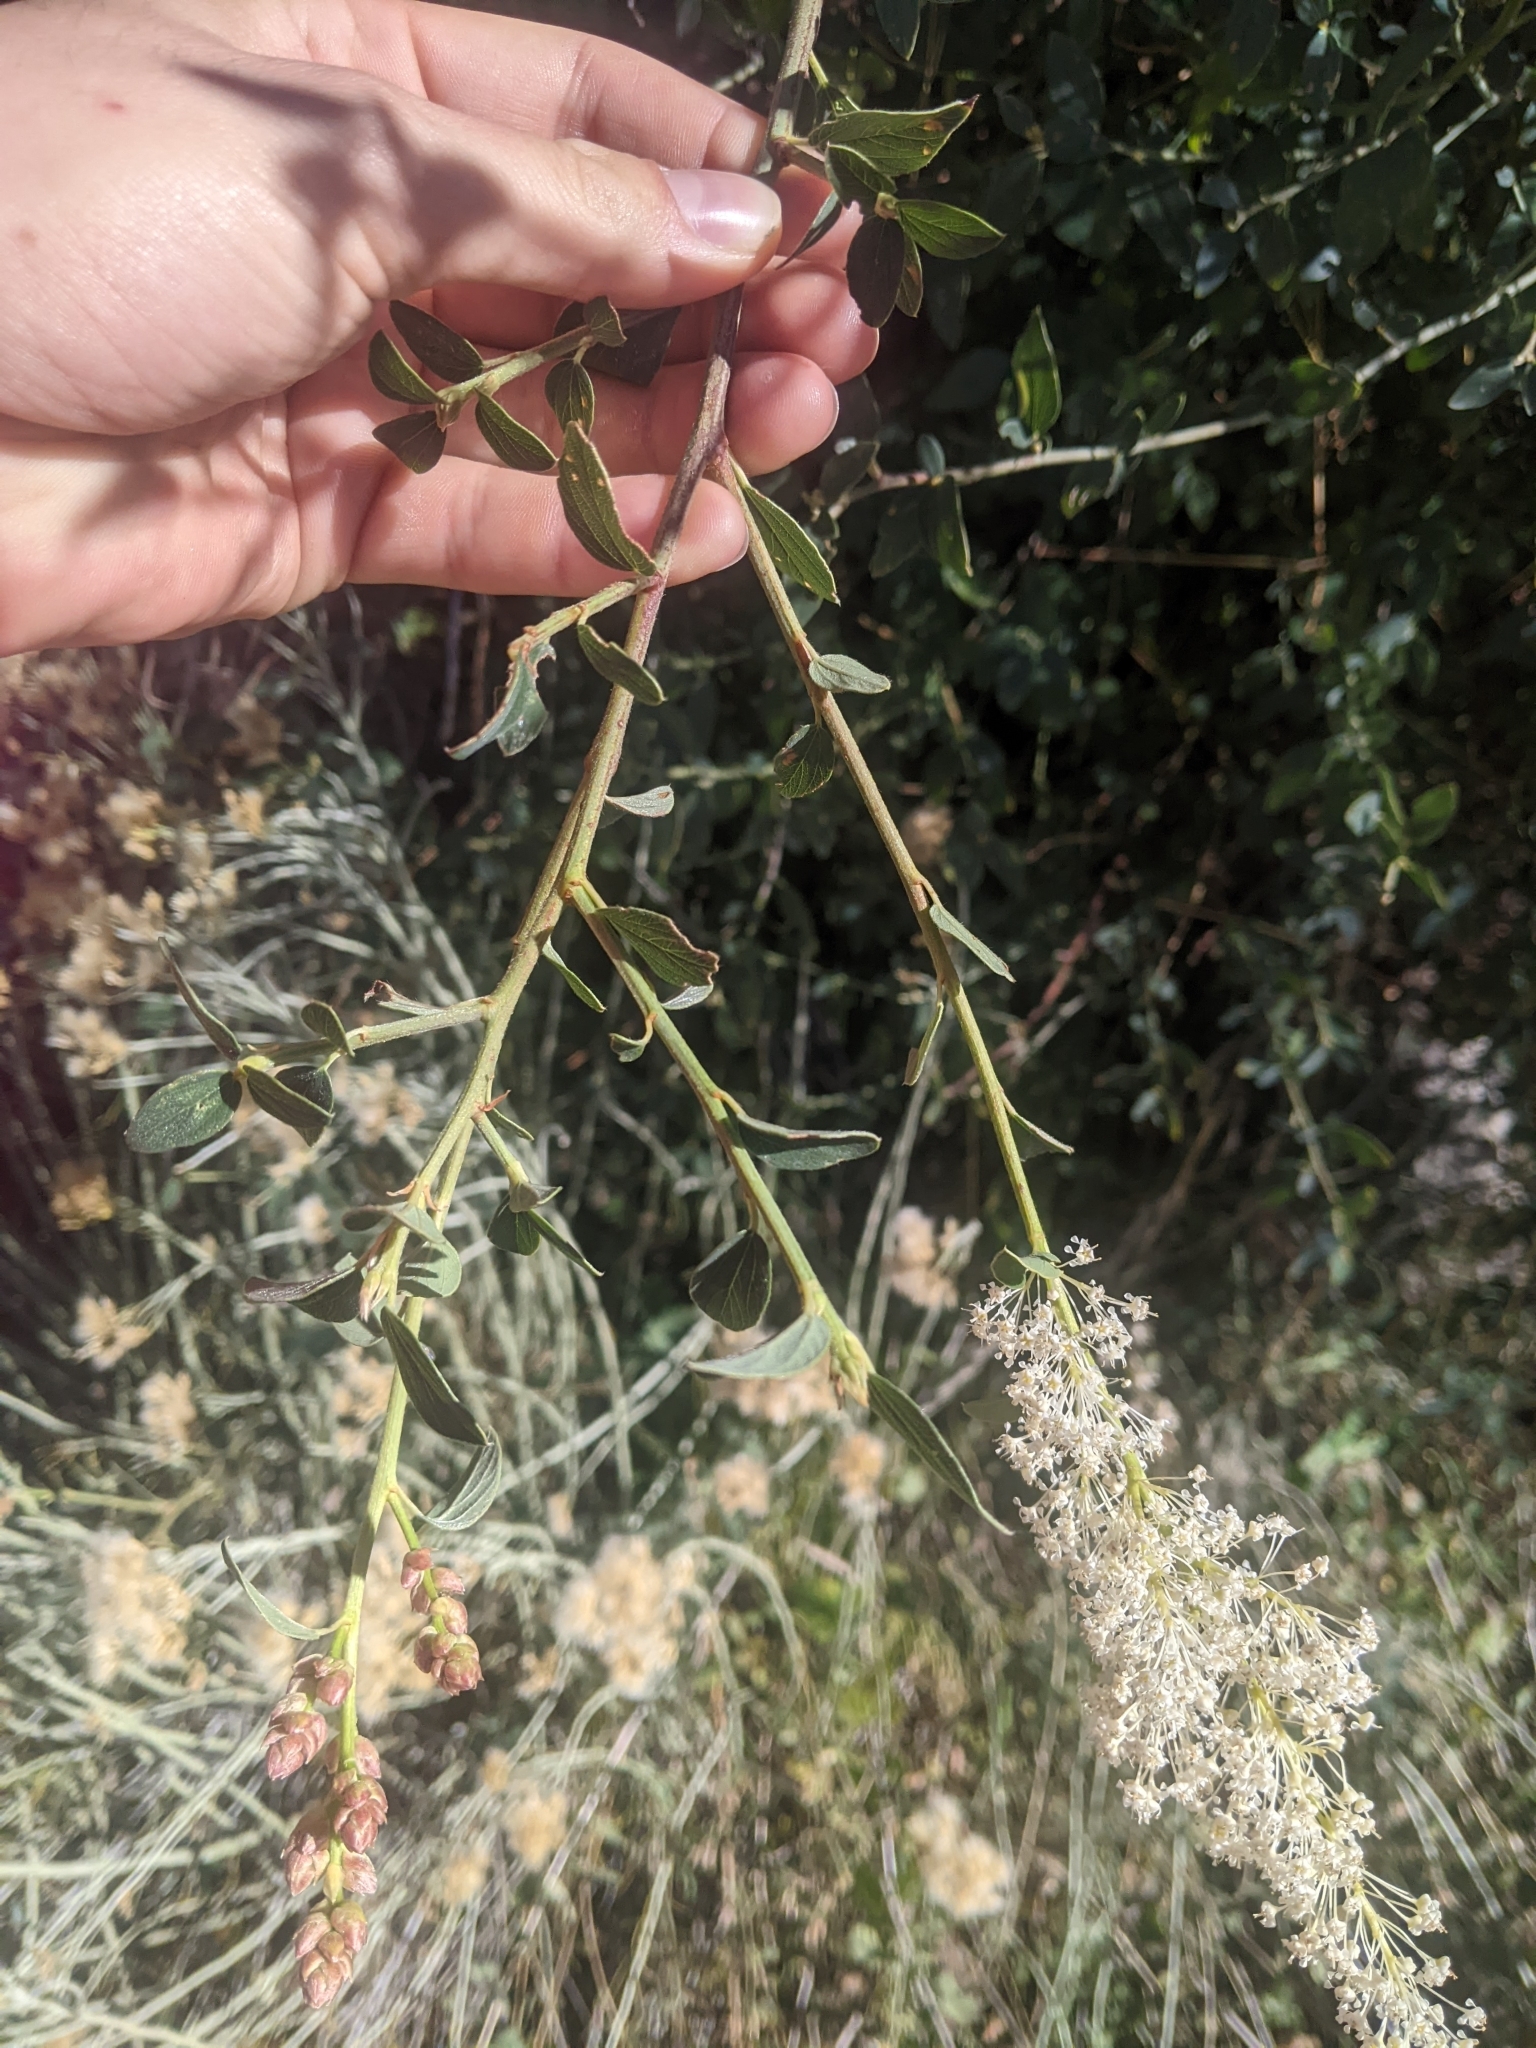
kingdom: Plantae
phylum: Tracheophyta
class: Magnoliopsida
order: Rosales
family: Rhamnaceae
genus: Ceanothus
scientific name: Ceanothus integerrimus
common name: Deerbrush ceanothus
